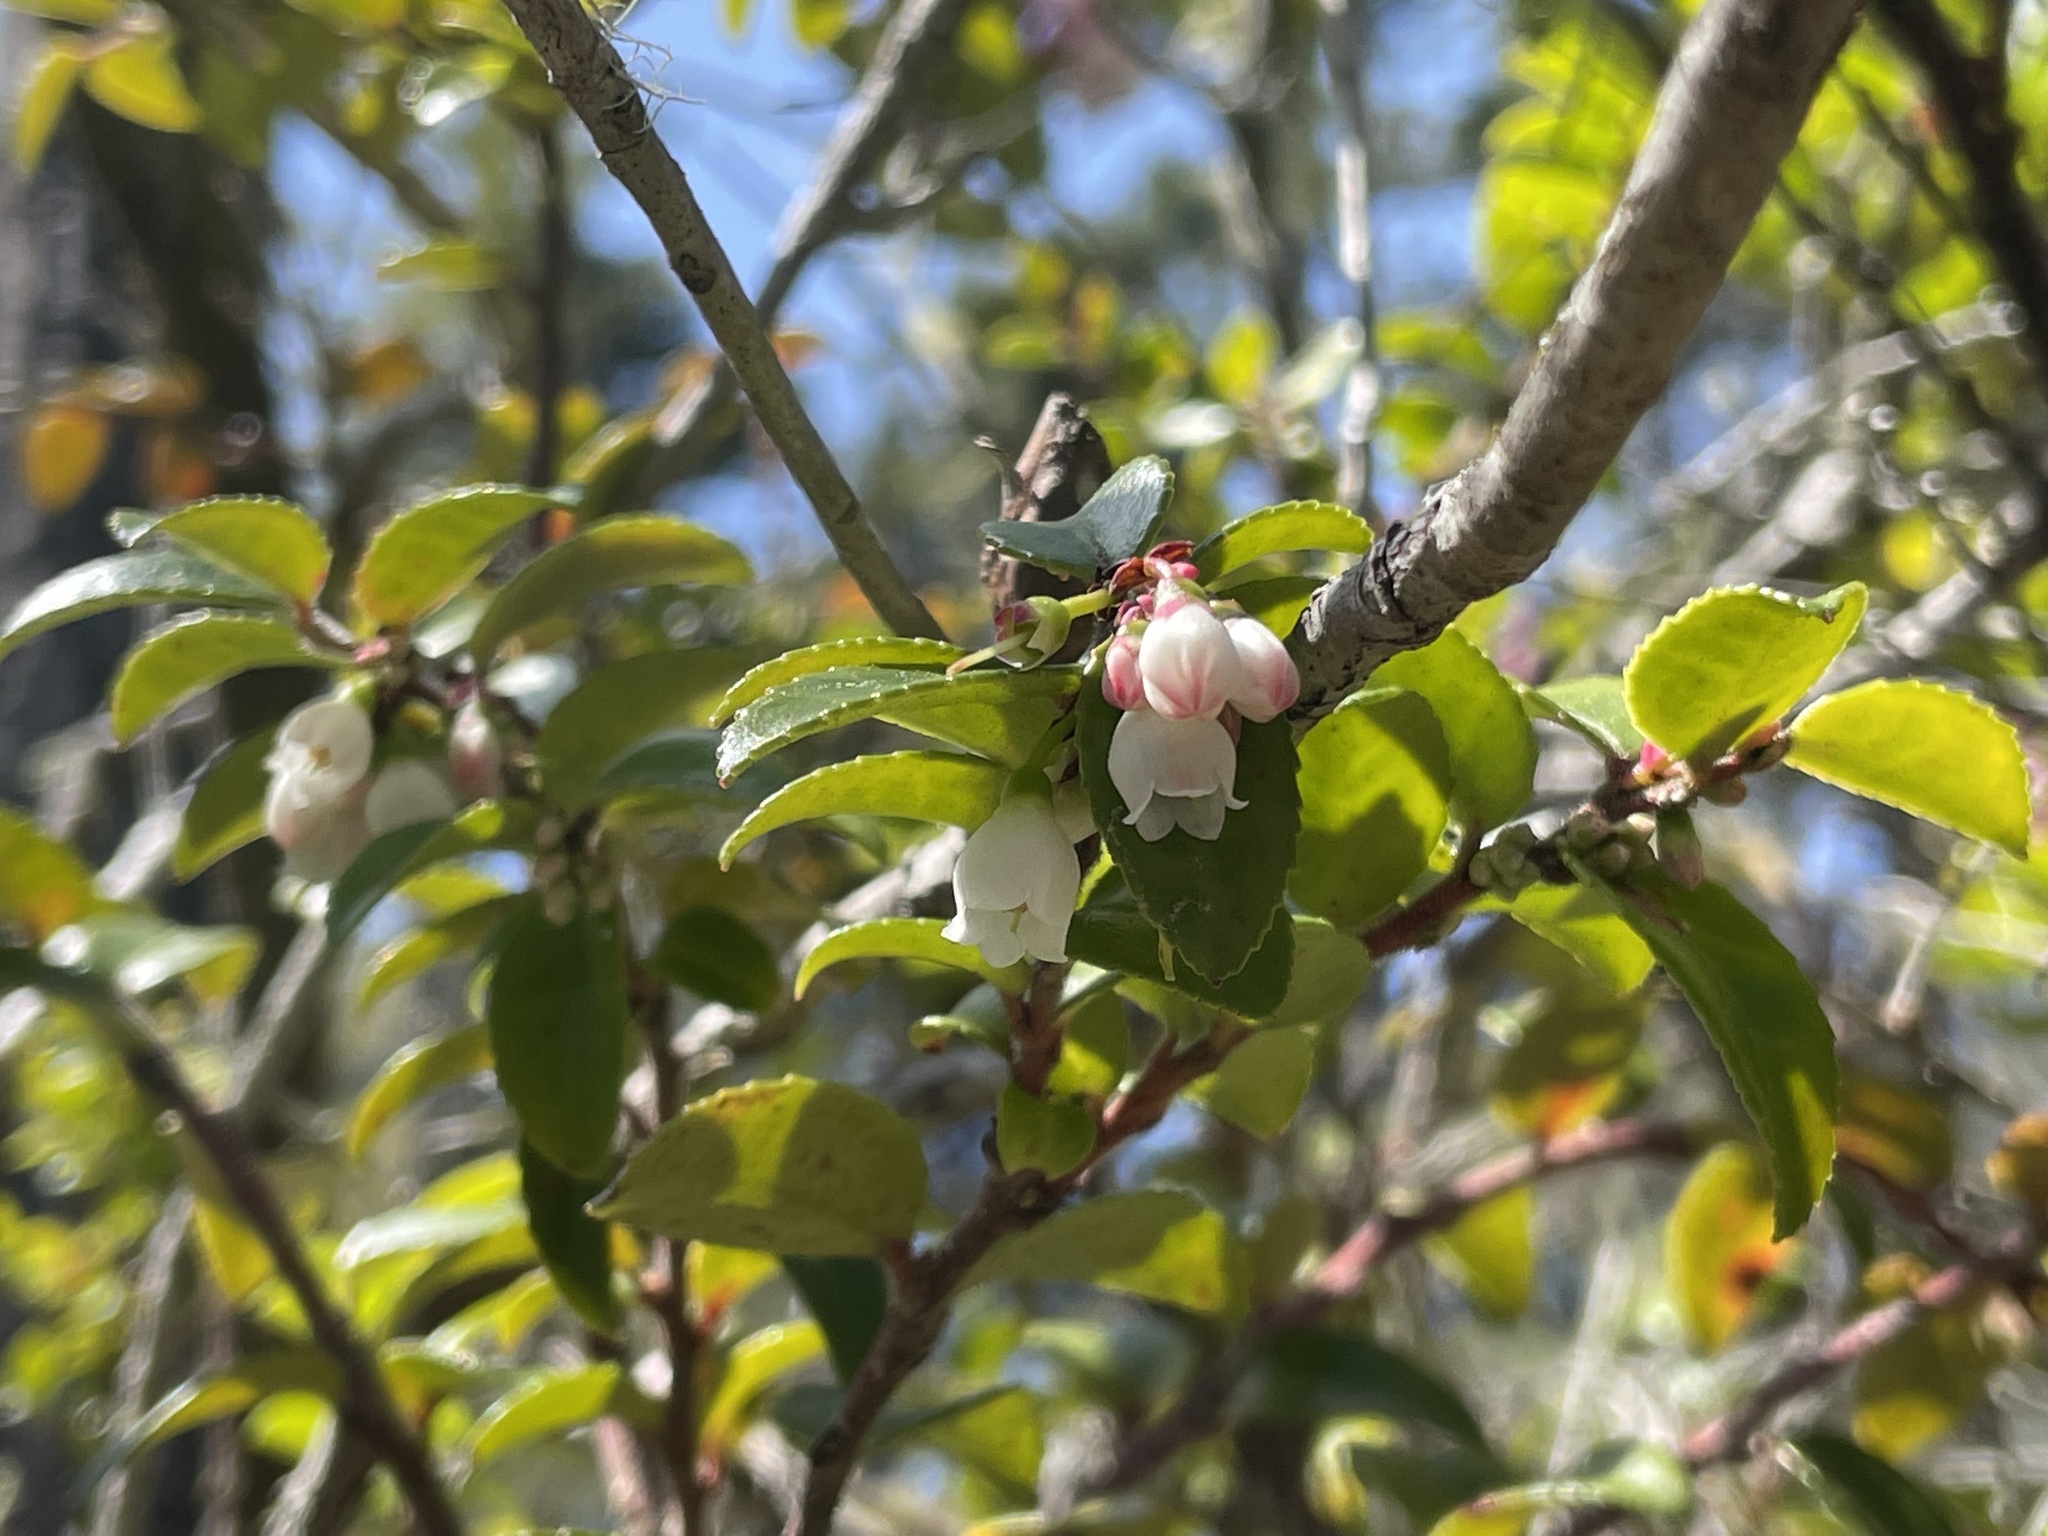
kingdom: Plantae
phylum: Tracheophyta
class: Magnoliopsida
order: Ericales
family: Ericaceae
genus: Vaccinium
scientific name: Vaccinium ovatum
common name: California-huckleberry
